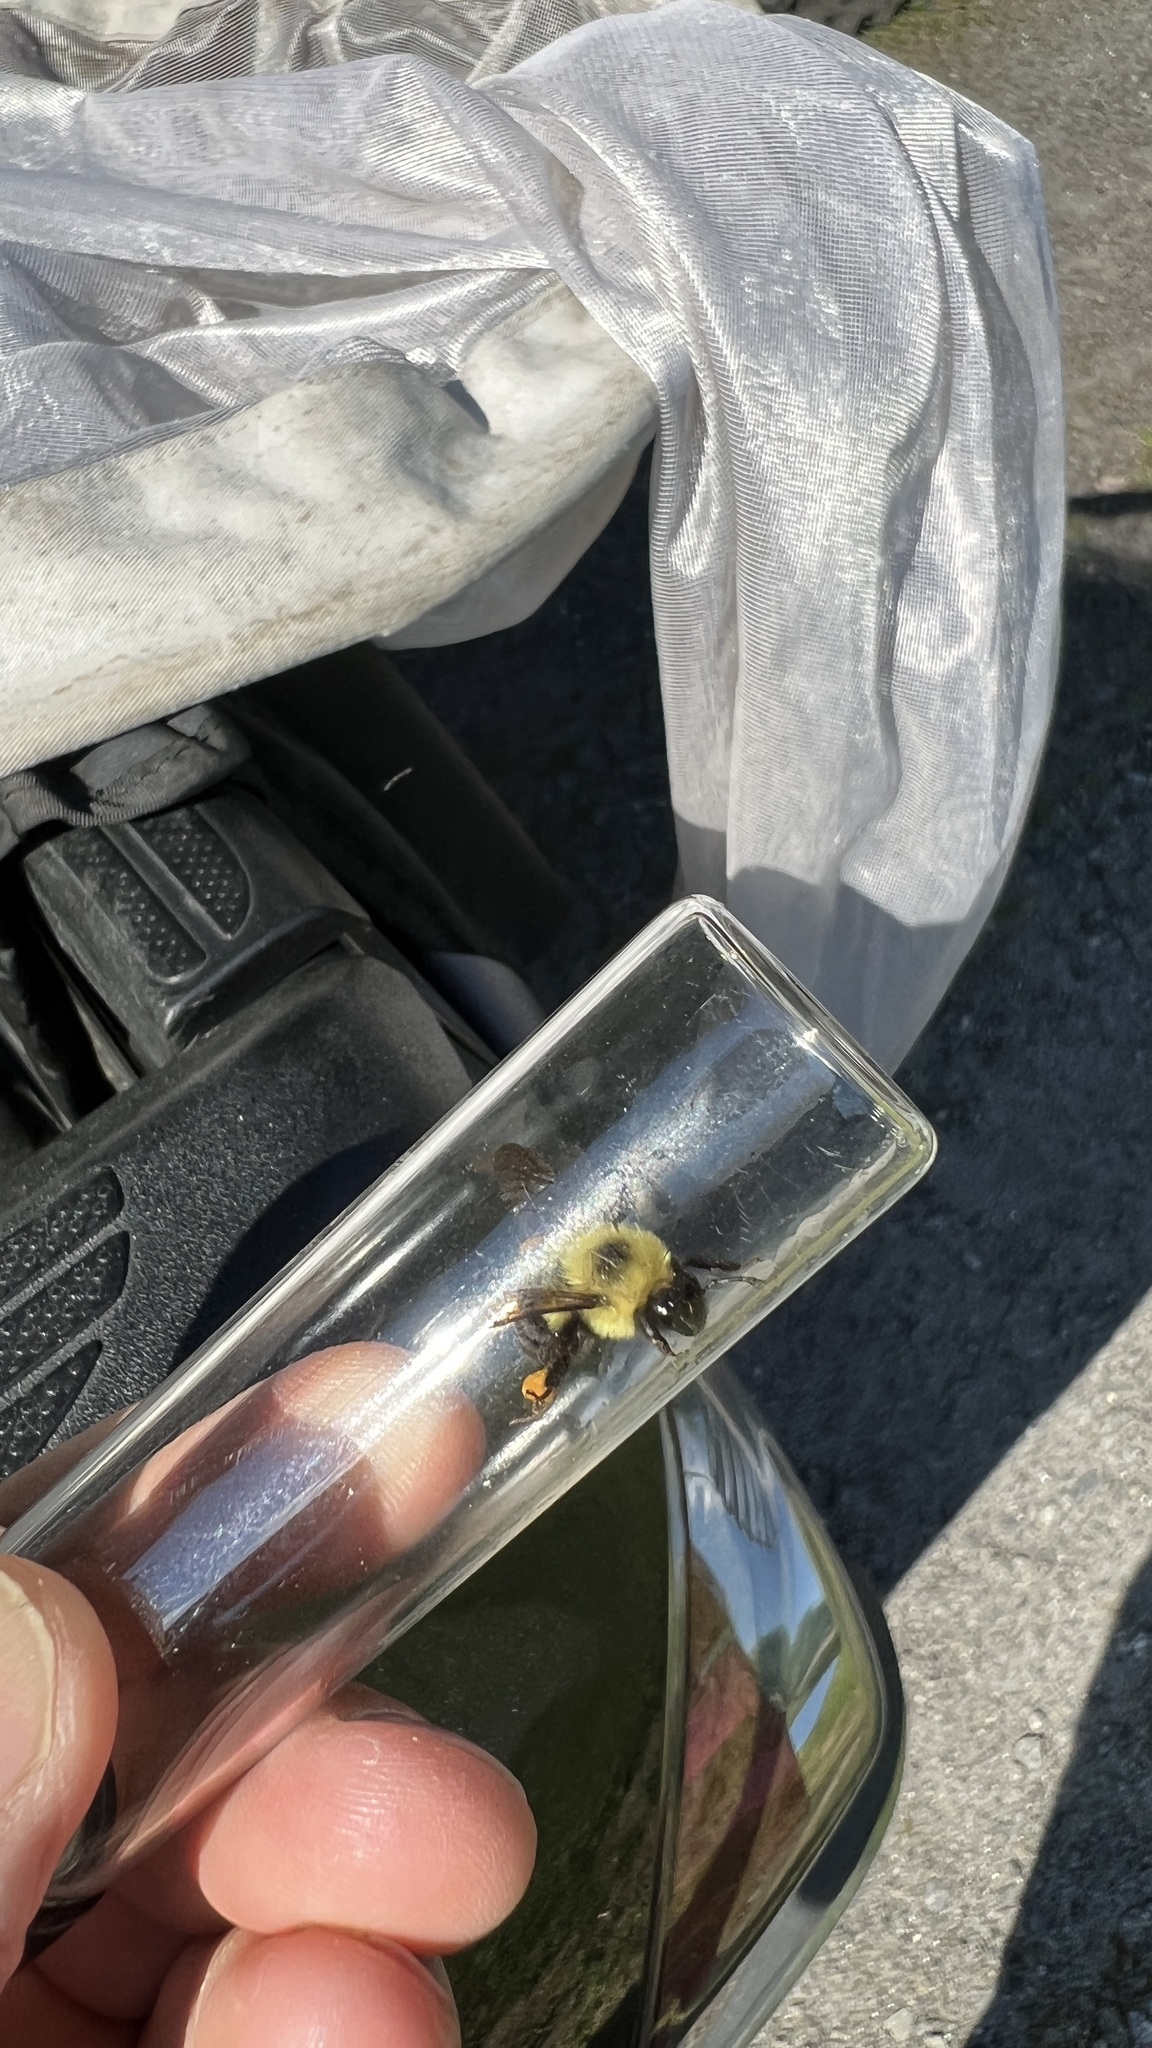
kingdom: Animalia
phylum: Arthropoda
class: Insecta
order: Hymenoptera
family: Apidae
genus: Bombus
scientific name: Bombus bimaculatus
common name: Two-spotted bumble bee
